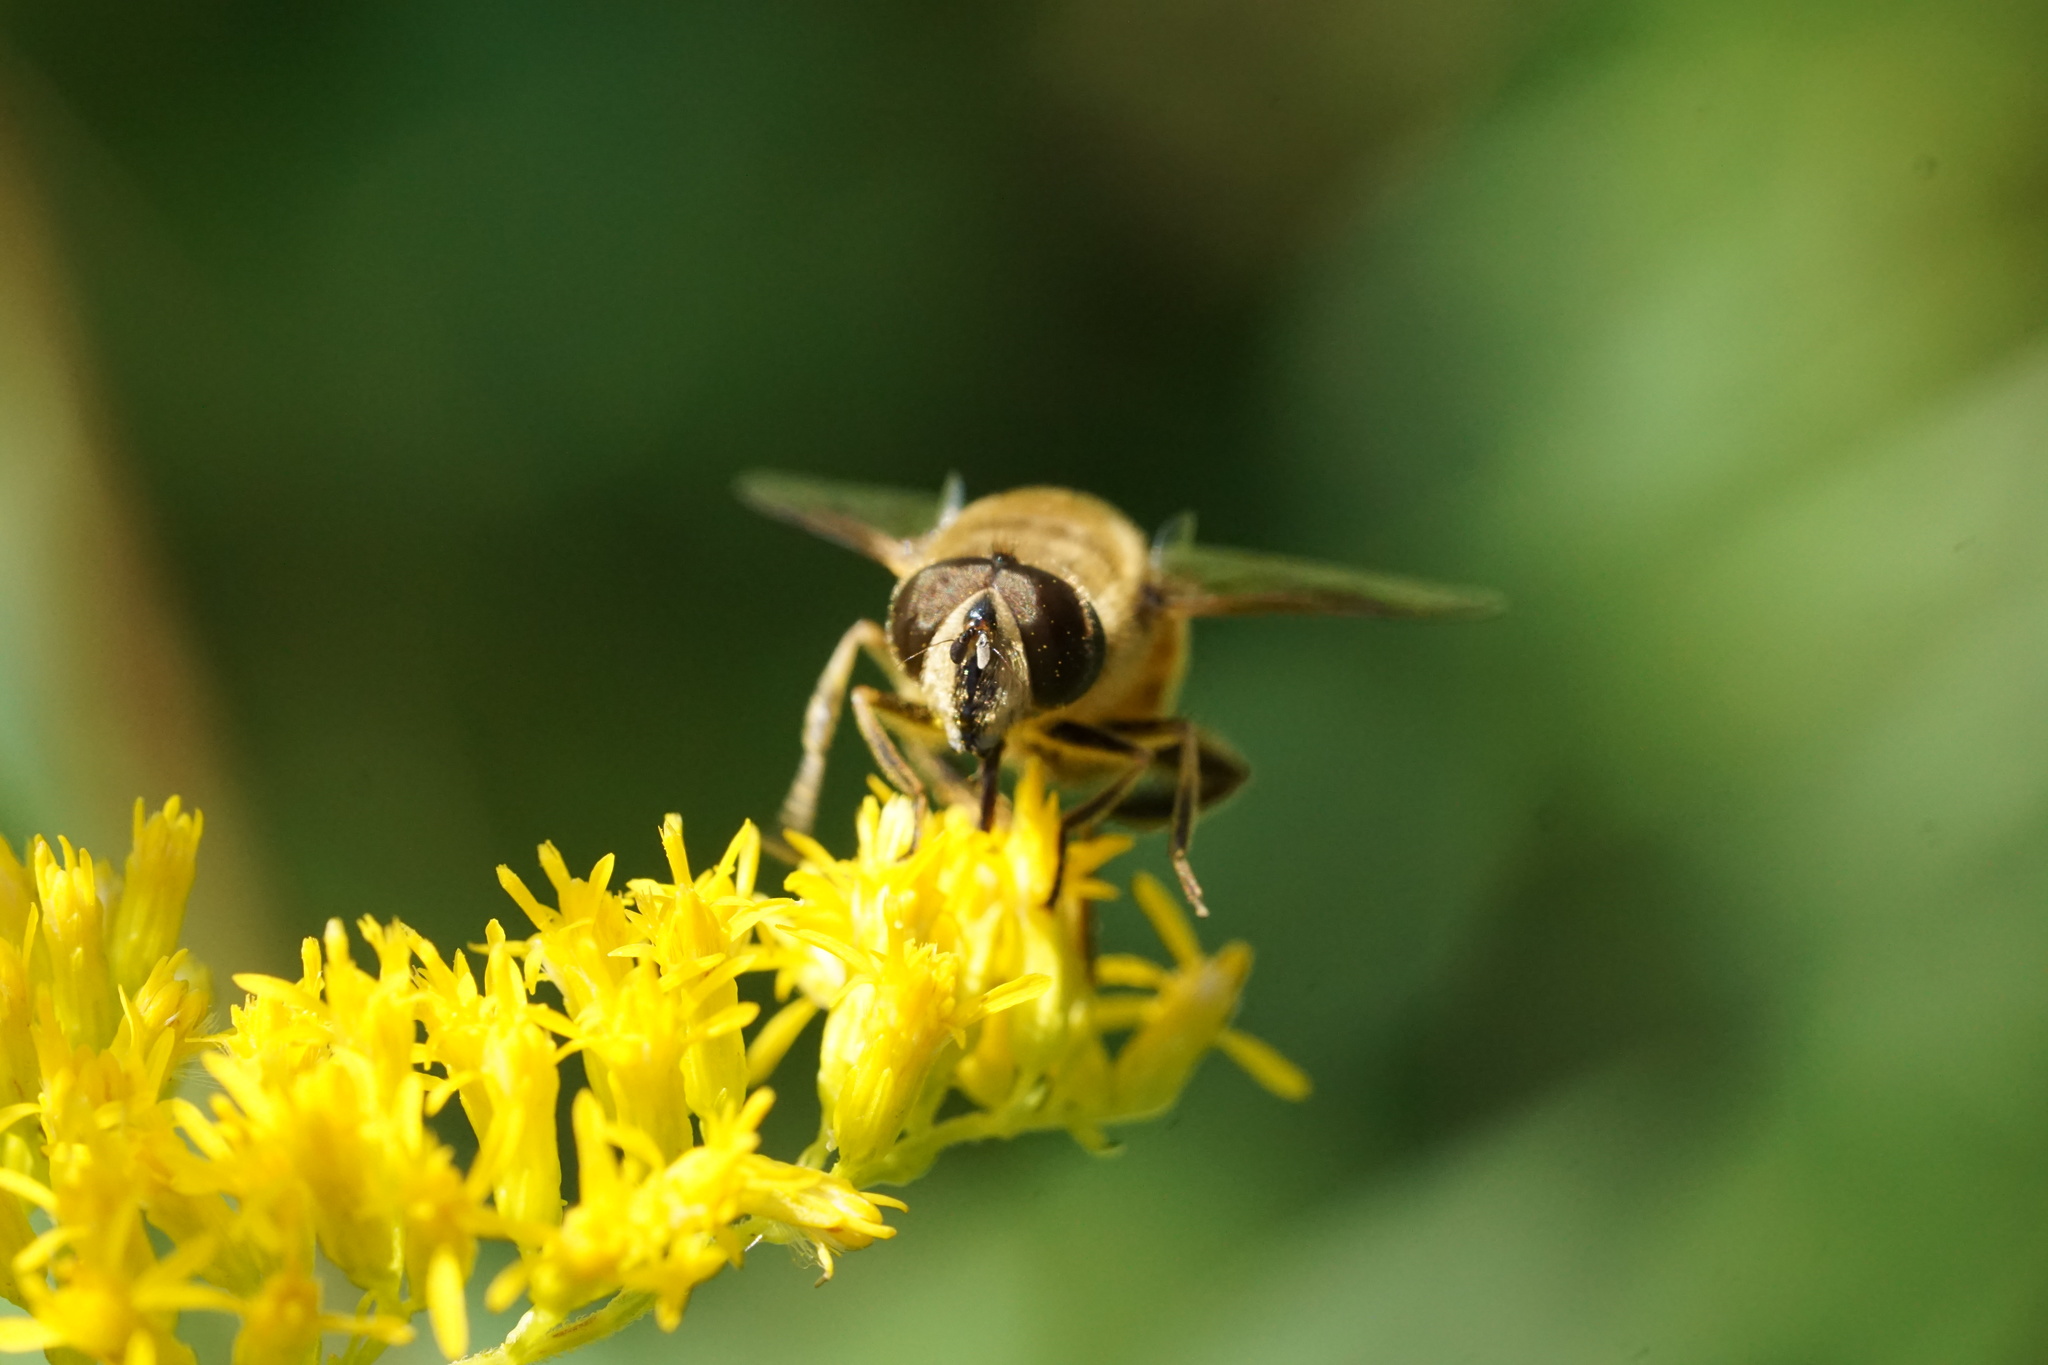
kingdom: Animalia
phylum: Arthropoda
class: Insecta
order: Diptera
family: Syrphidae
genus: Eristalis
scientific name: Eristalis tenax
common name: Drone fly
